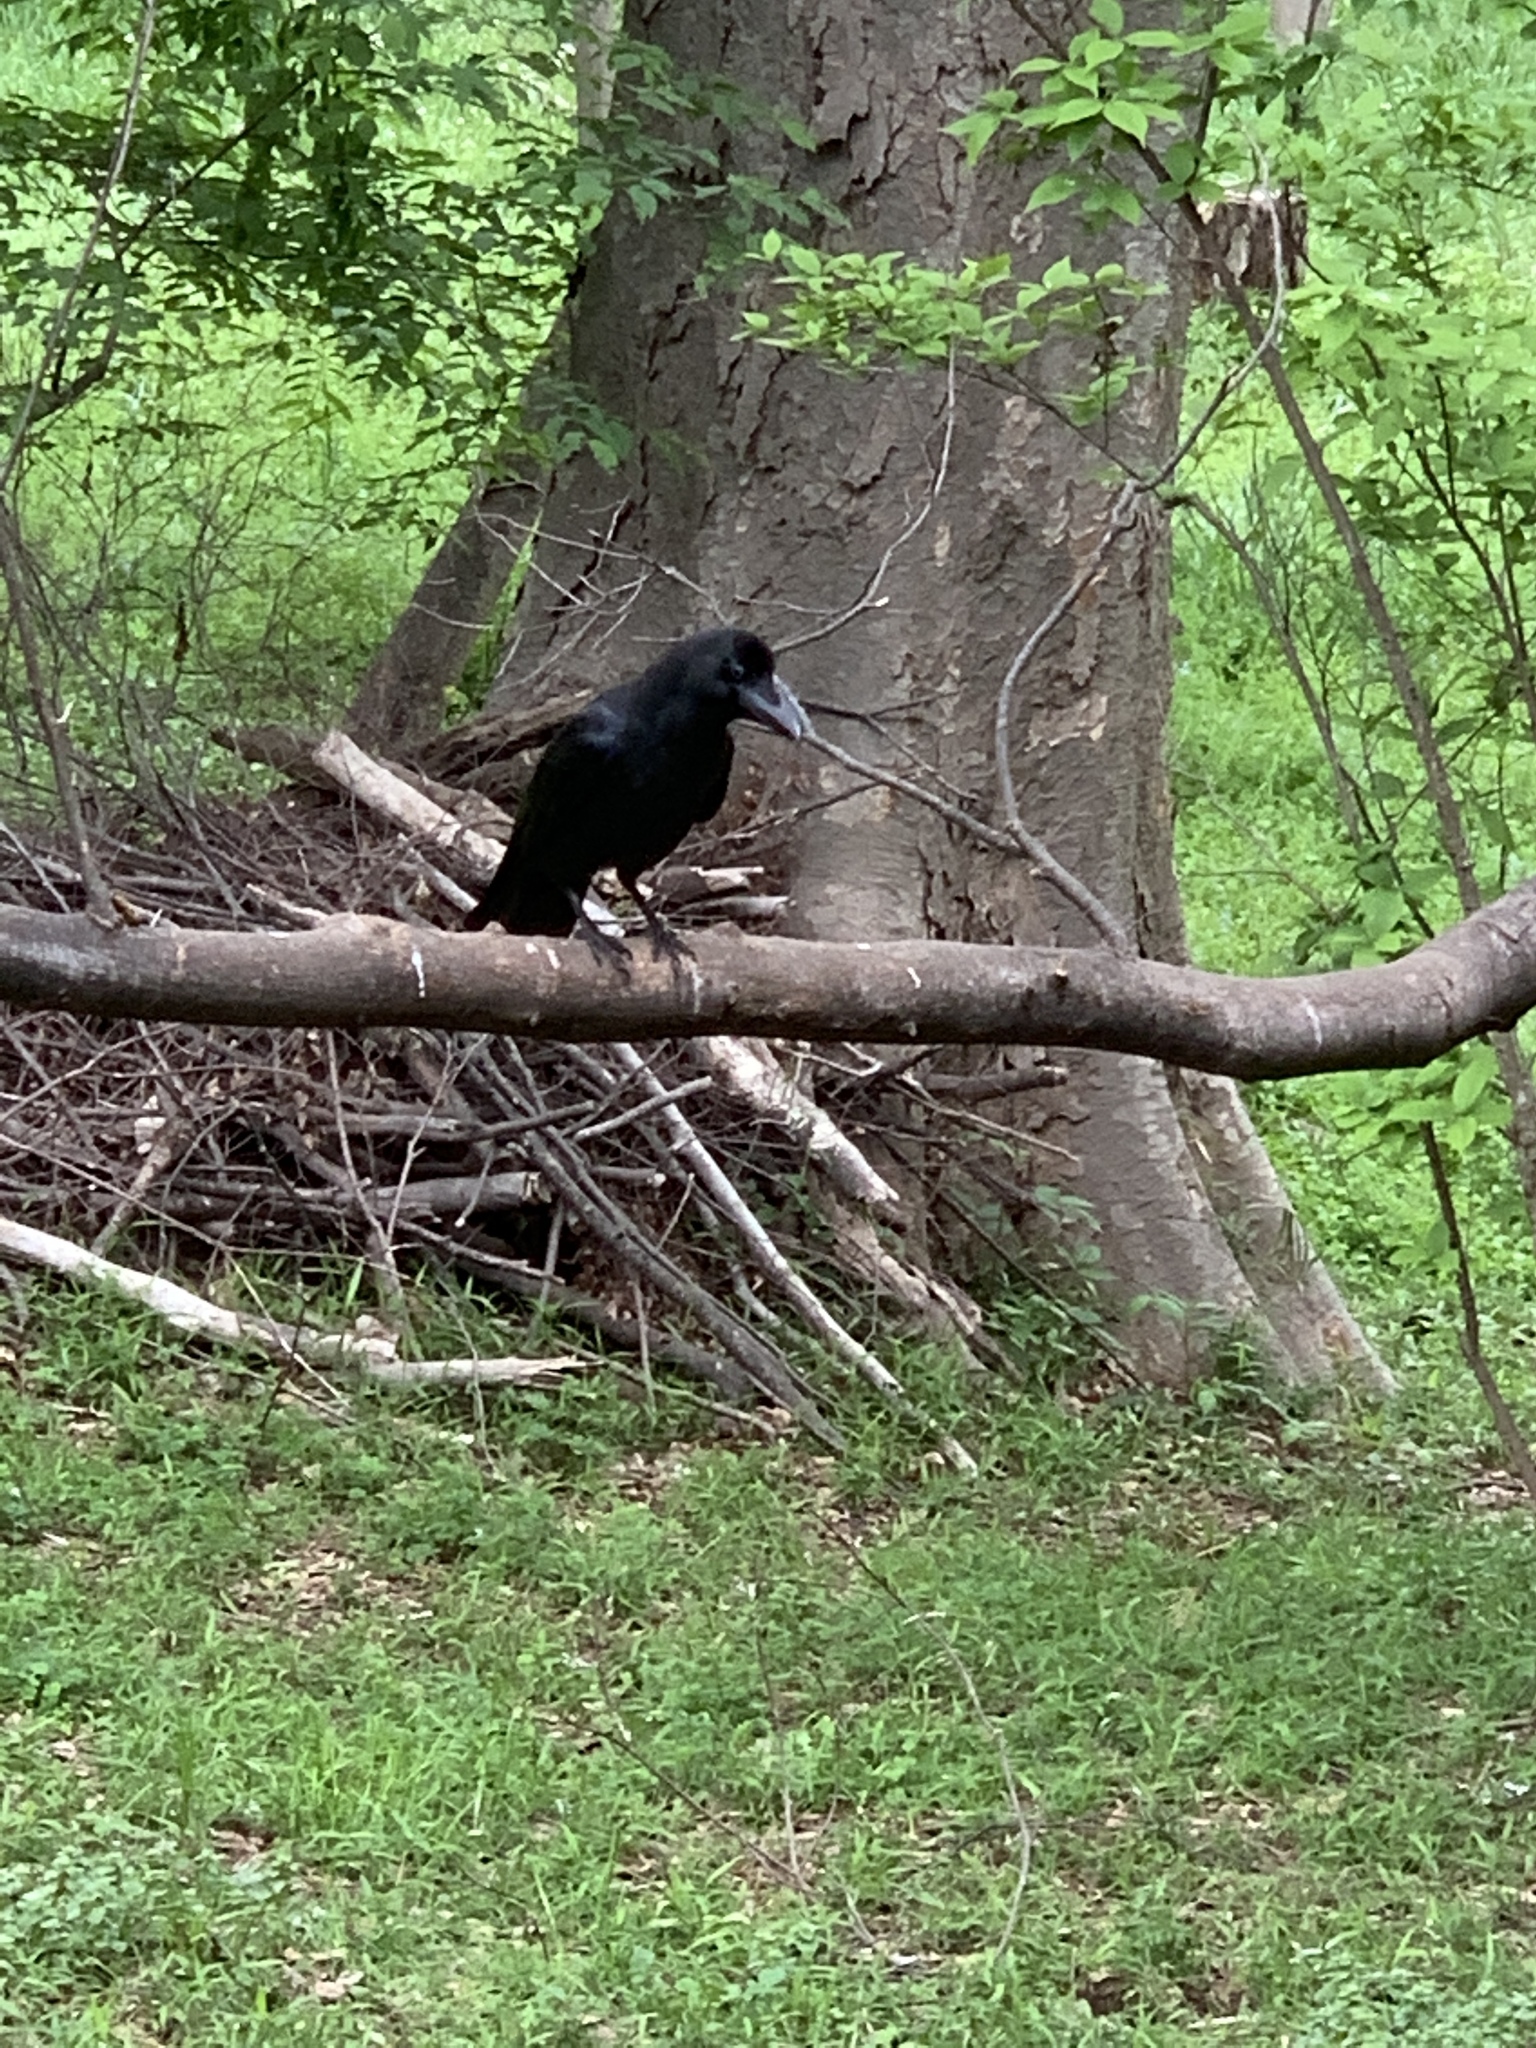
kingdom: Animalia
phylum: Chordata
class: Aves
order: Passeriformes
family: Corvidae
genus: Corvus
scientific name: Corvus macrorhynchos
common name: Large-billed crow
